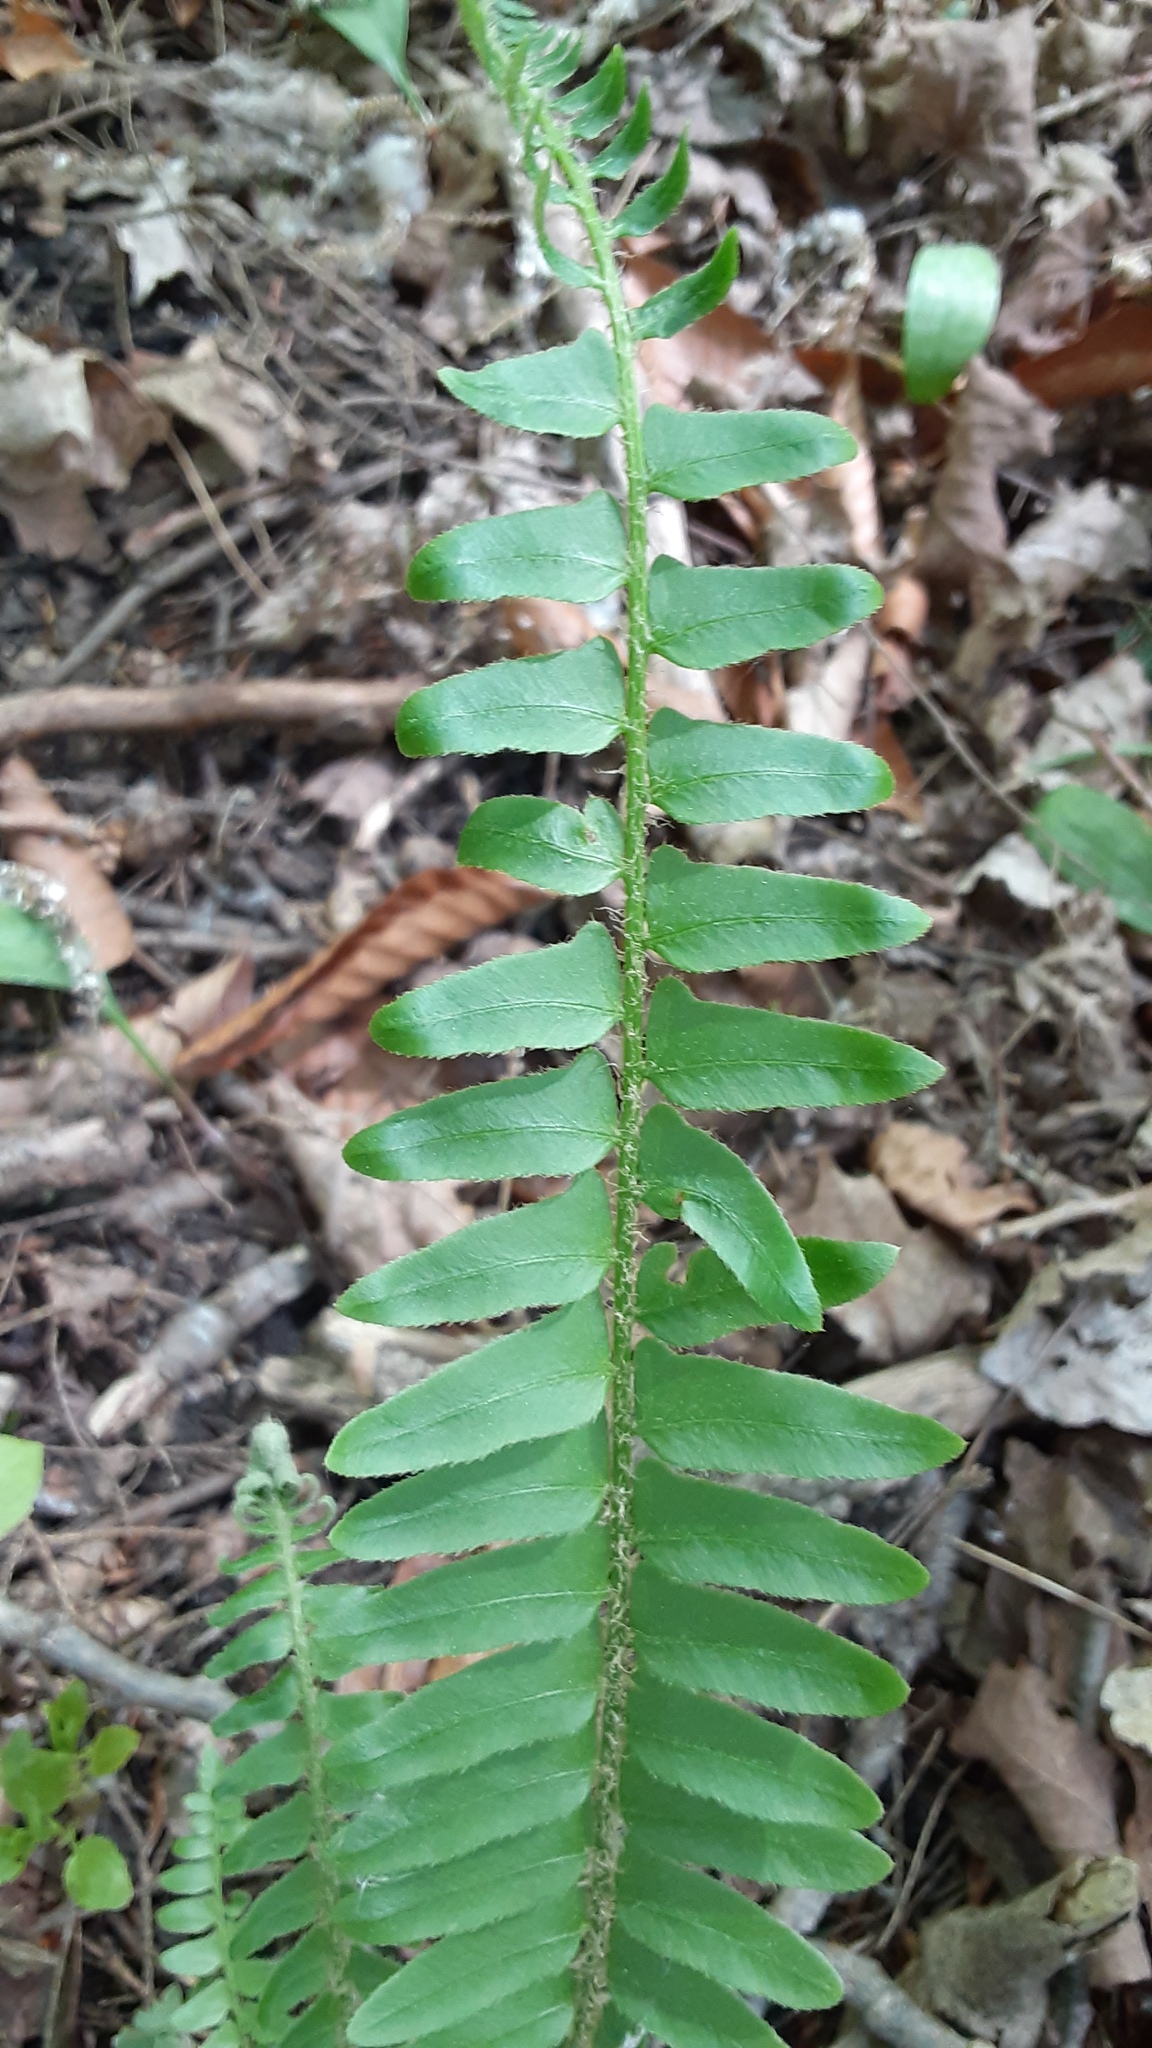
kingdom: Plantae
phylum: Tracheophyta
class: Polypodiopsida
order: Polypodiales
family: Dryopteridaceae
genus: Polystichum
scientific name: Polystichum acrostichoides
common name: Christmas fern
